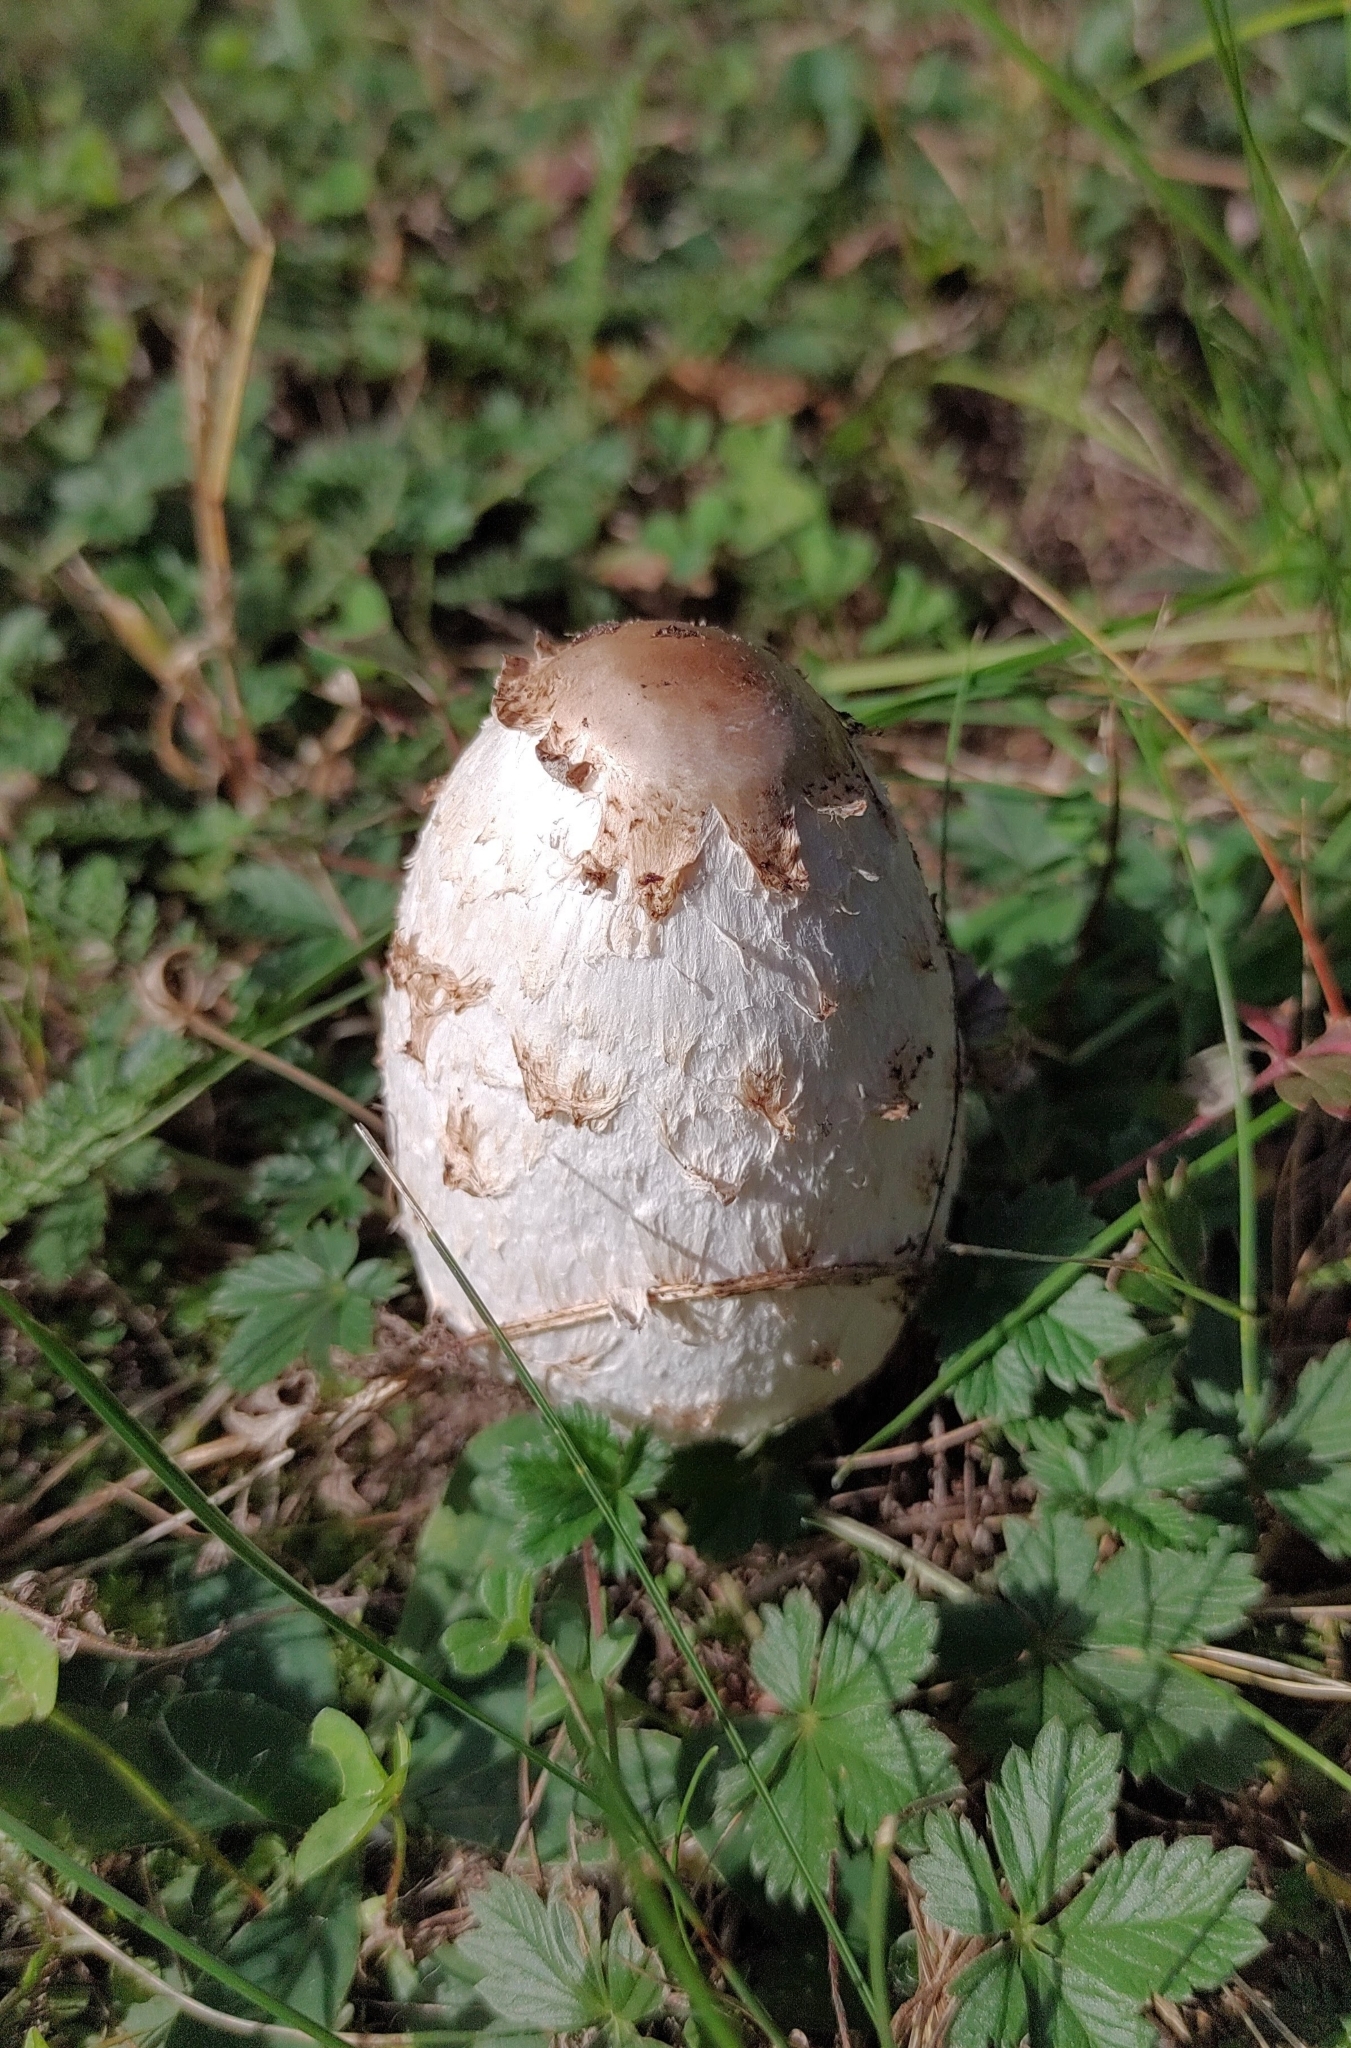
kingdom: Fungi
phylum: Basidiomycota
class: Agaricomycetes
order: Agaricales
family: Agaricaceae
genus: Coprinus
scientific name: Coprinus comatus
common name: Lawyer's wig
